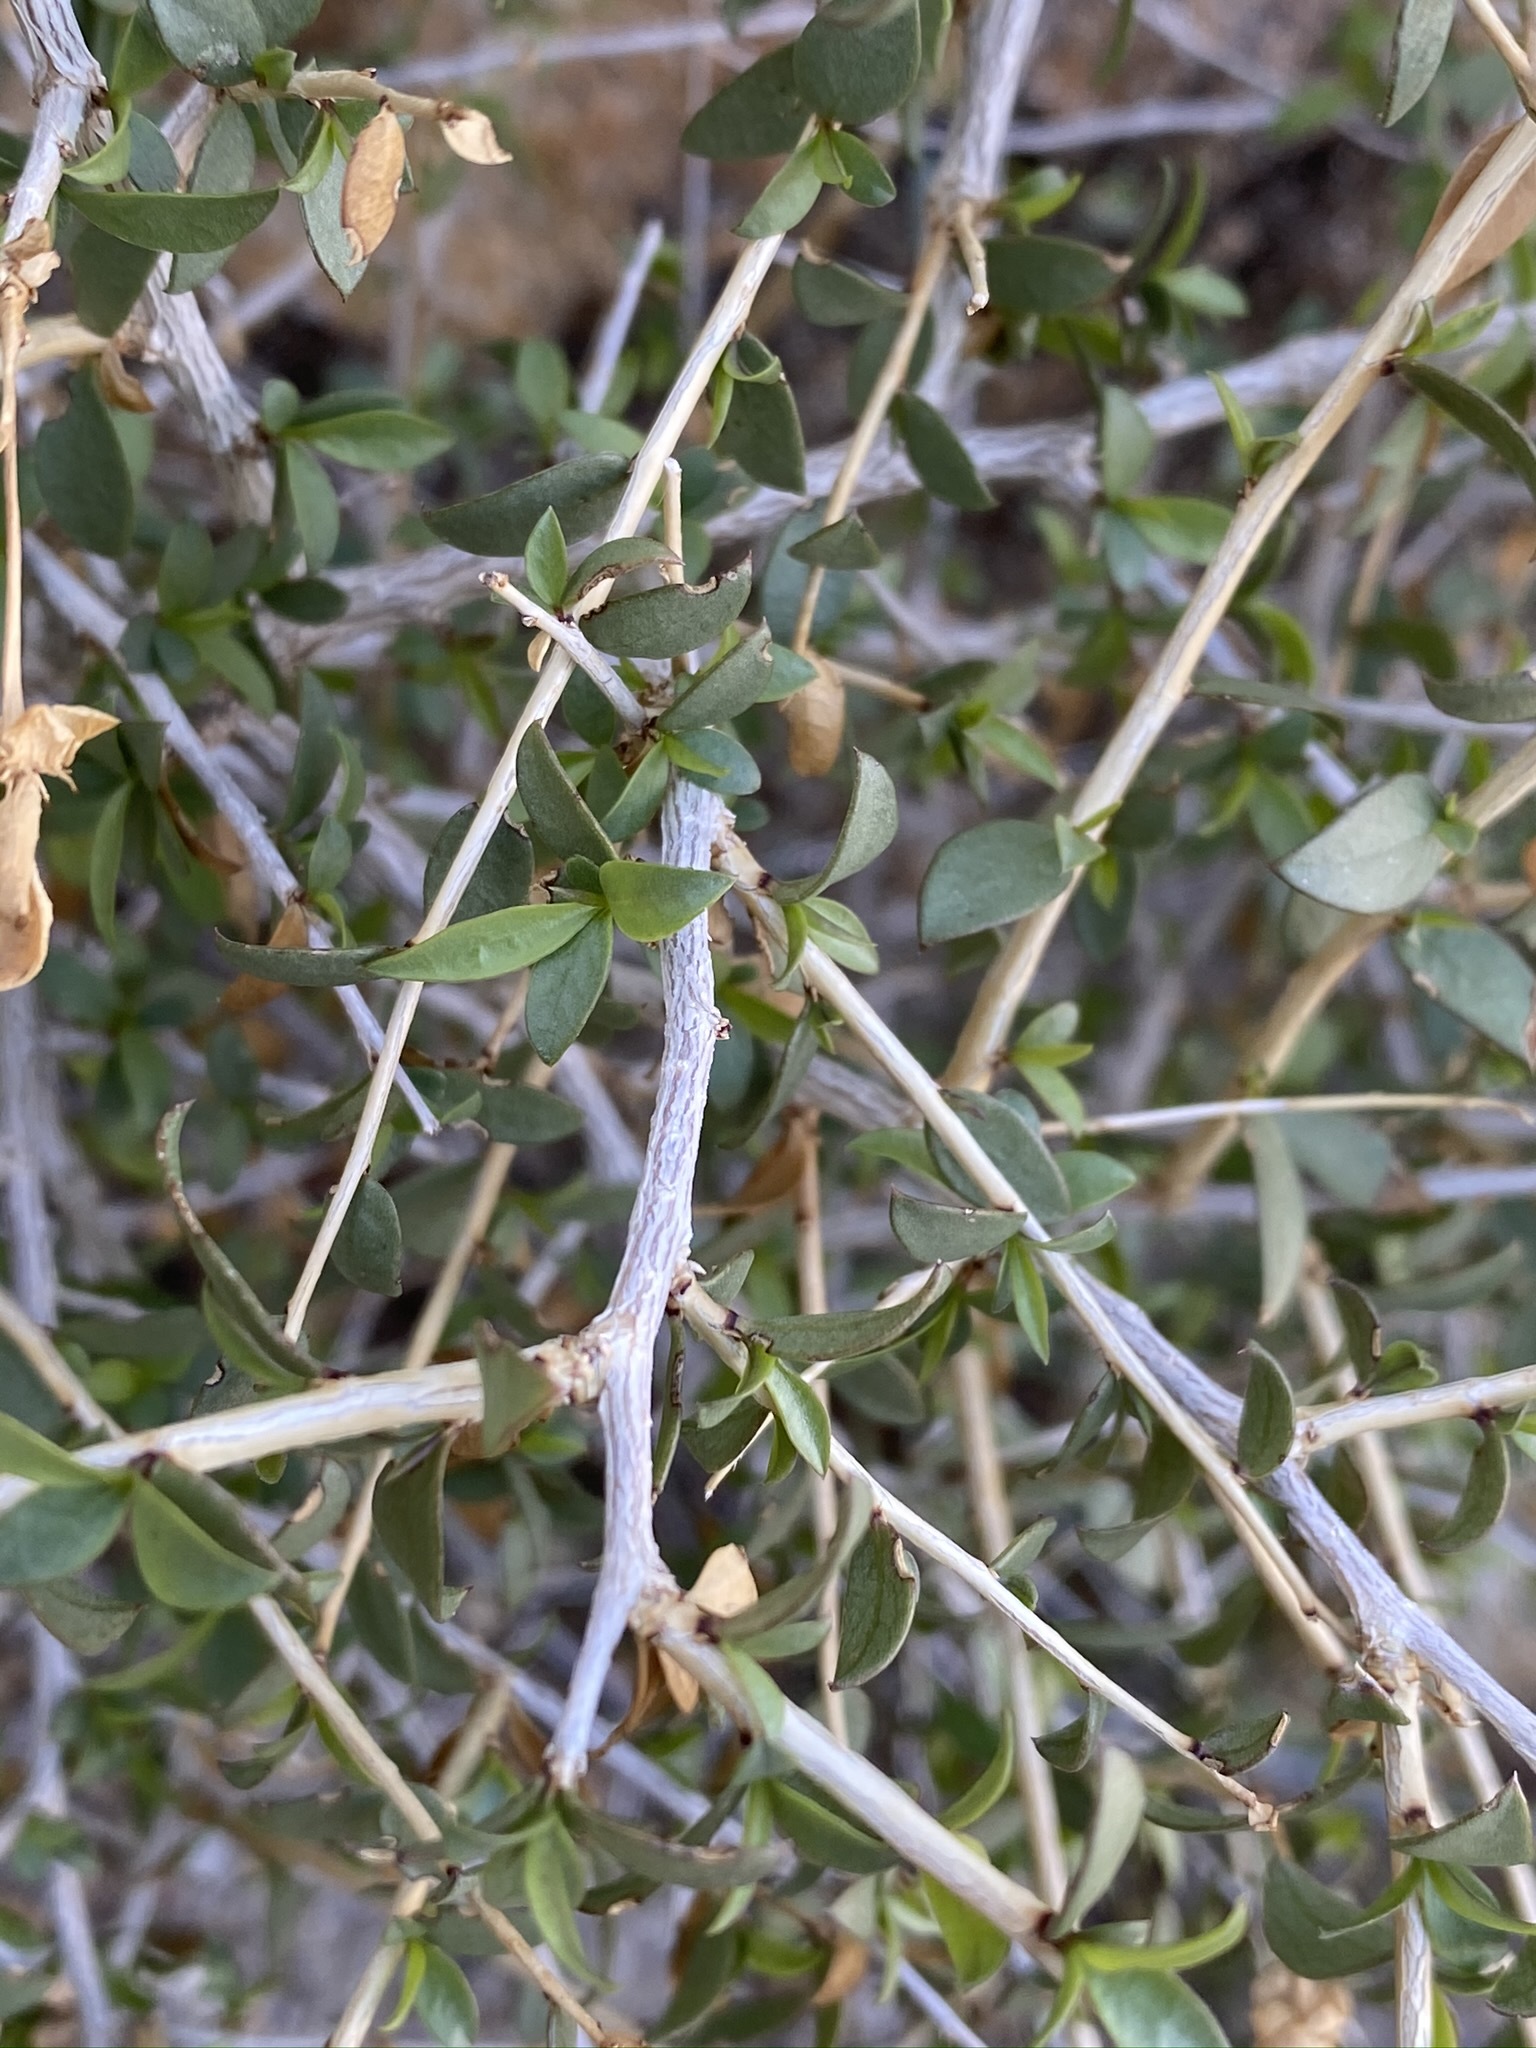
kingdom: Plantae
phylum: Tracheophyta
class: Magnoliopsida
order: Crossosomatales
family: Crossosomataceae
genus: Crossosoma
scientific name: Crossosoma bigelovii
